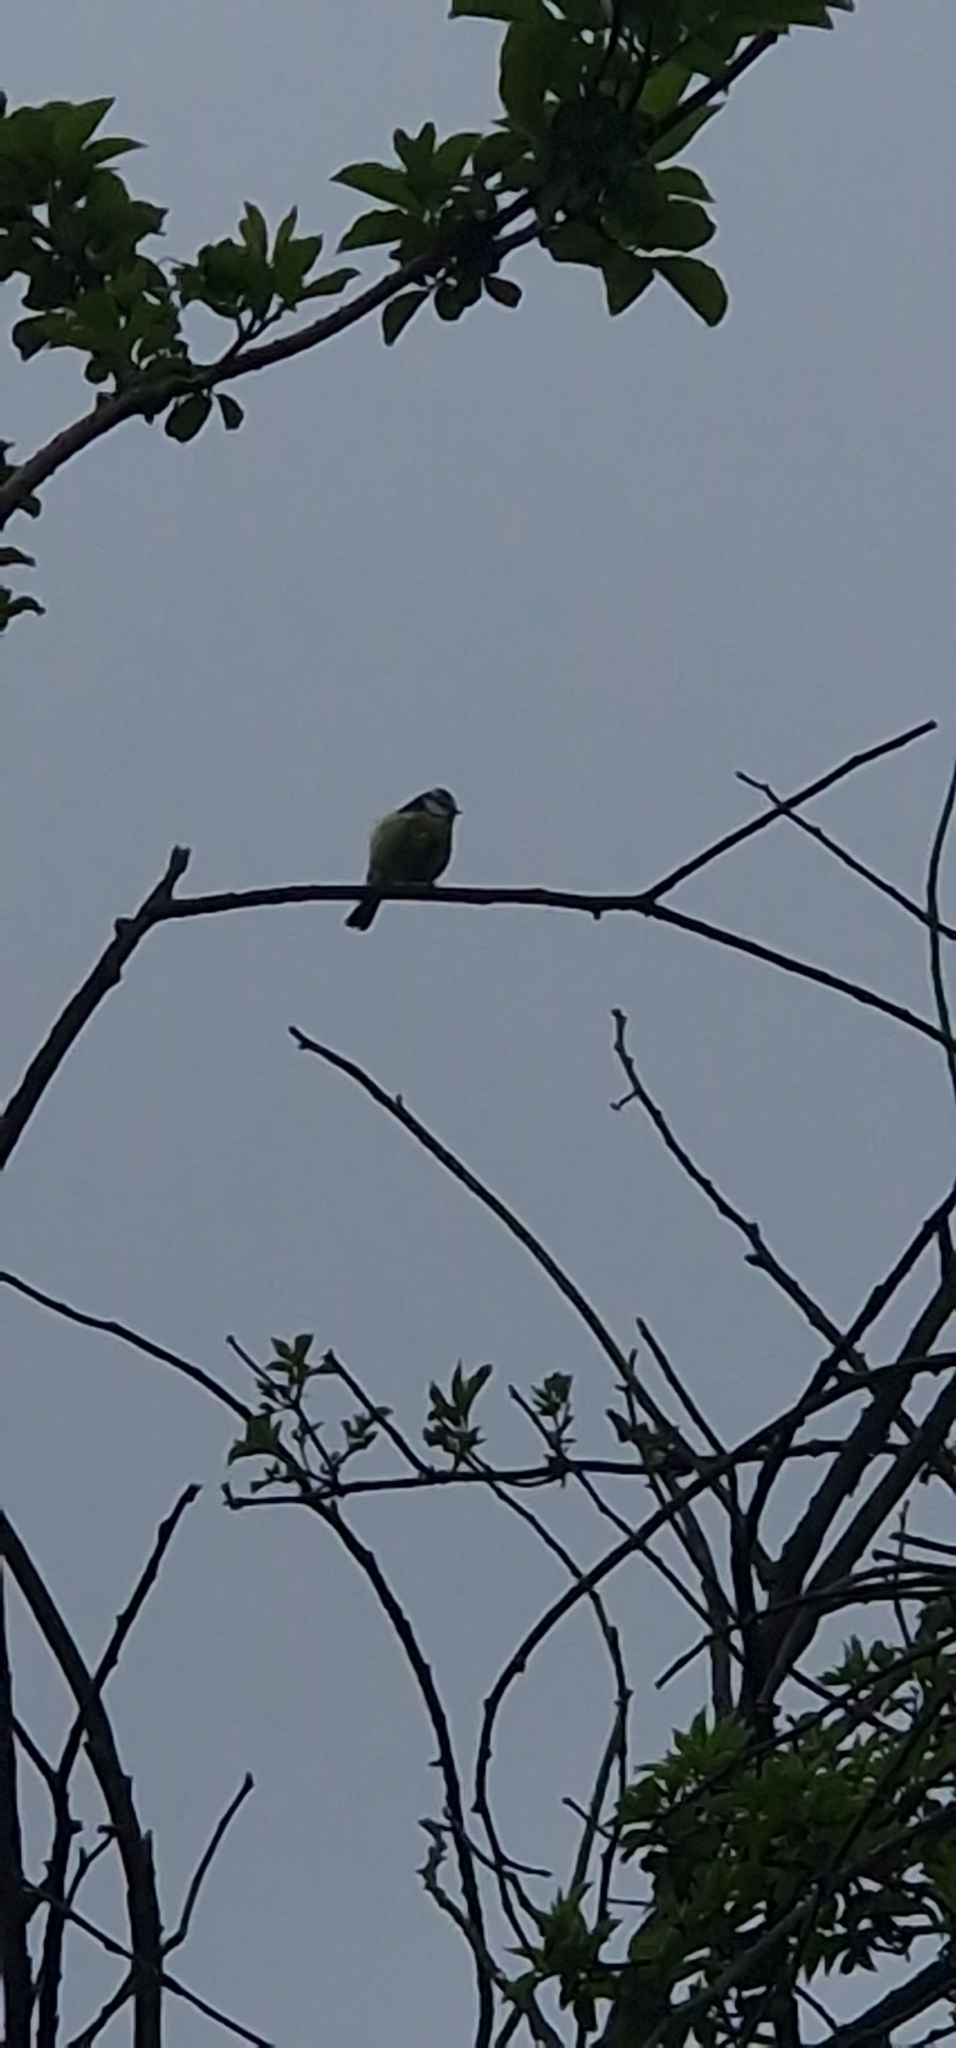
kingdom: Animalia
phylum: Chordata
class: Aves
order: Passeriformes
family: Paridae
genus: Cyanistes
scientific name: Cyanistes caeruleus
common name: Eurasian blue tit
